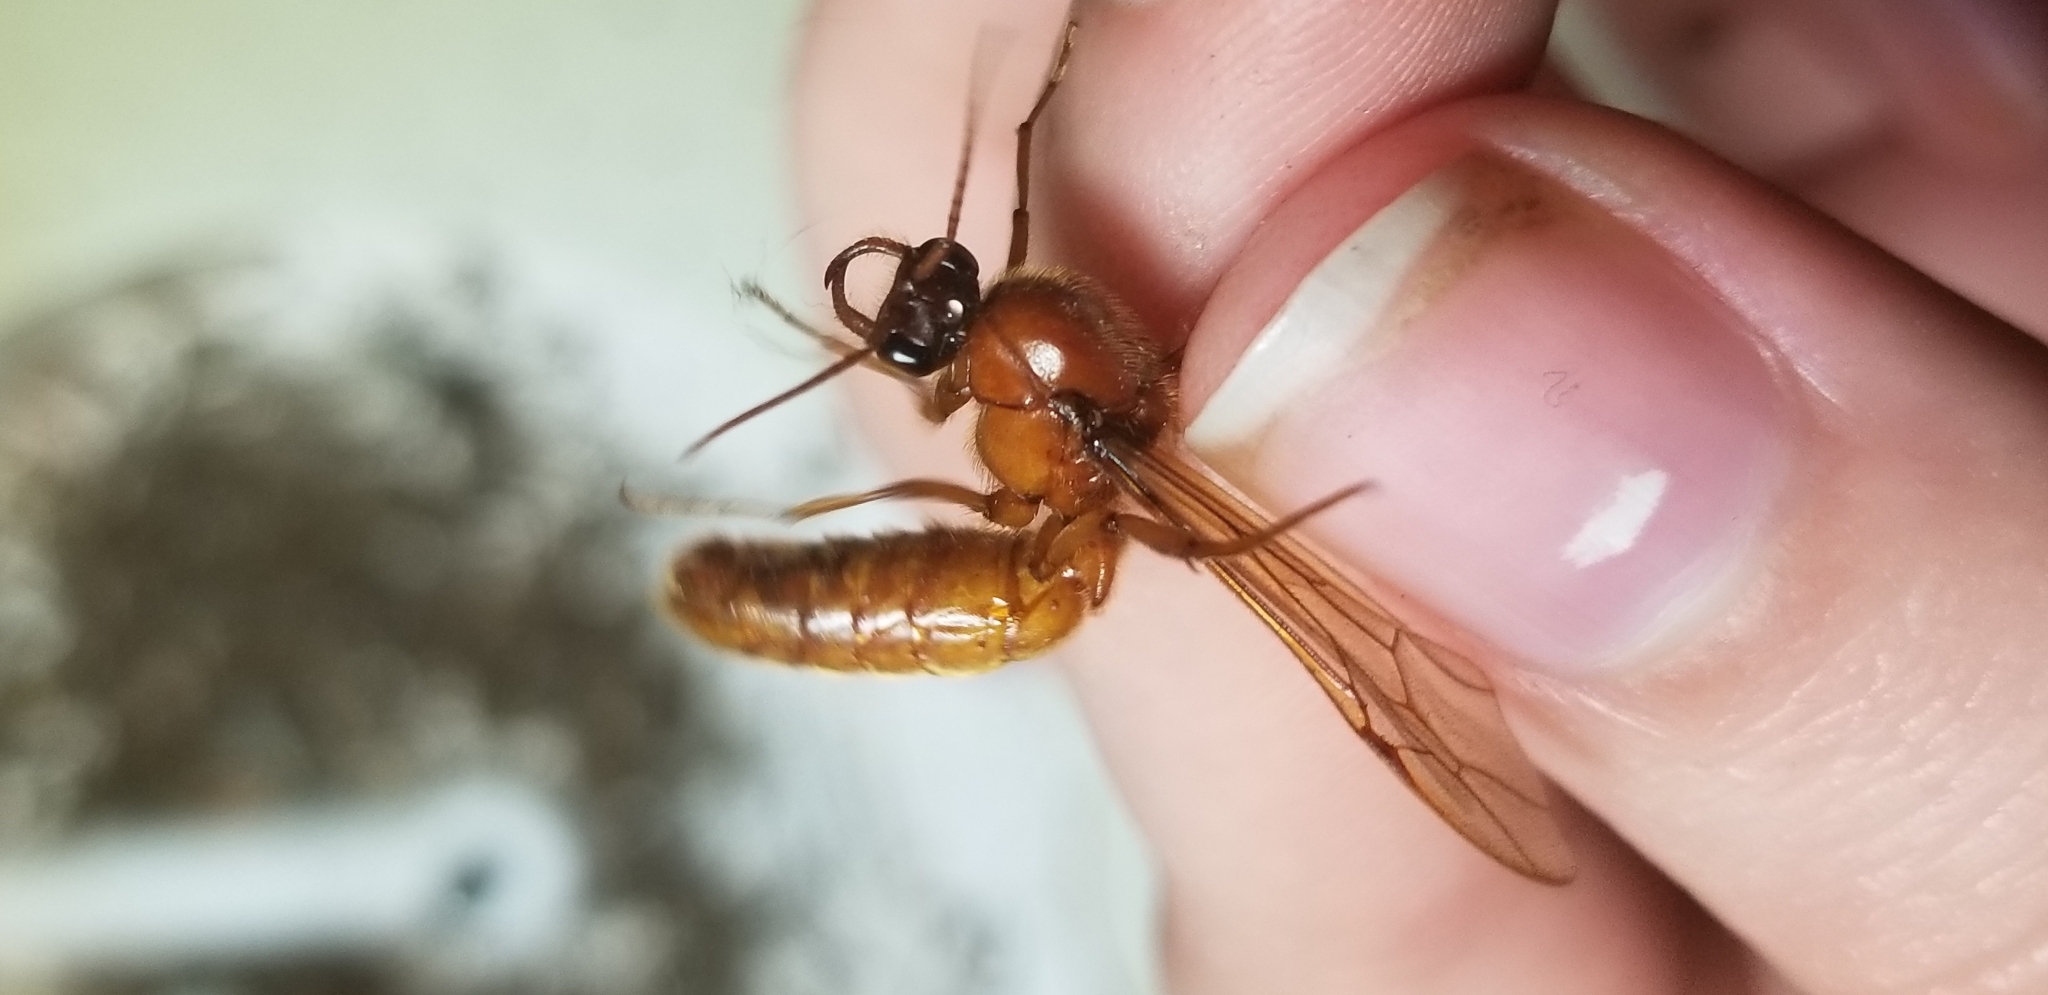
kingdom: Animalia
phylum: Arthropoda
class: Insecta
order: Hymenoptera
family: Formicidae
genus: Labidus
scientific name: Labidus coecus
